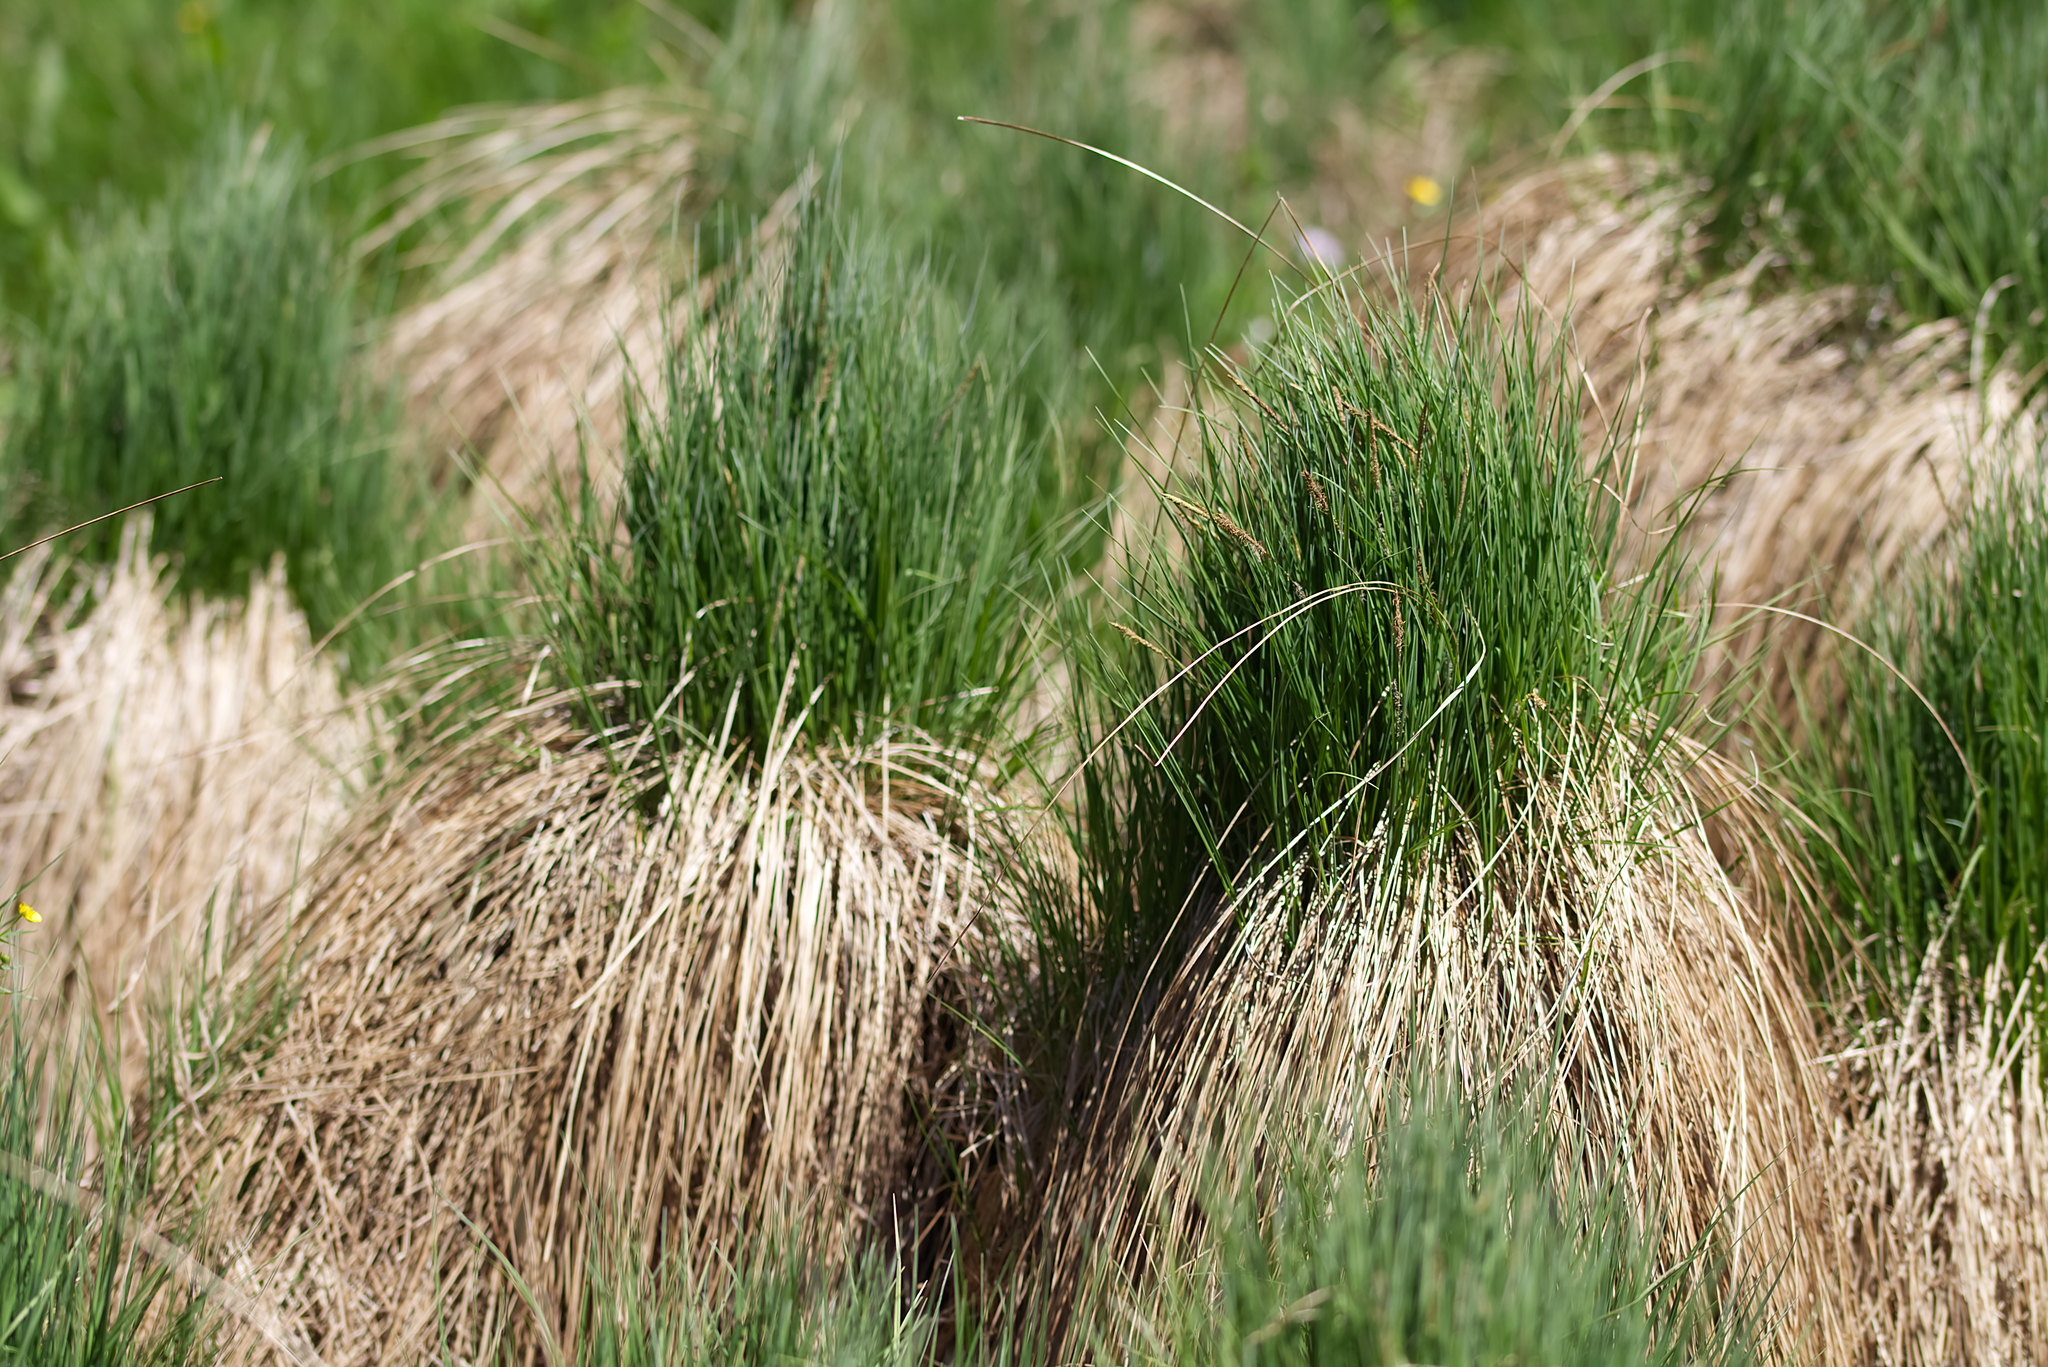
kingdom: Plantae
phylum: Tracheophyta
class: Liliopsida
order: Poales
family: Cyperaceae
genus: Carex
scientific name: Carex elata
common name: Tufted sedge
